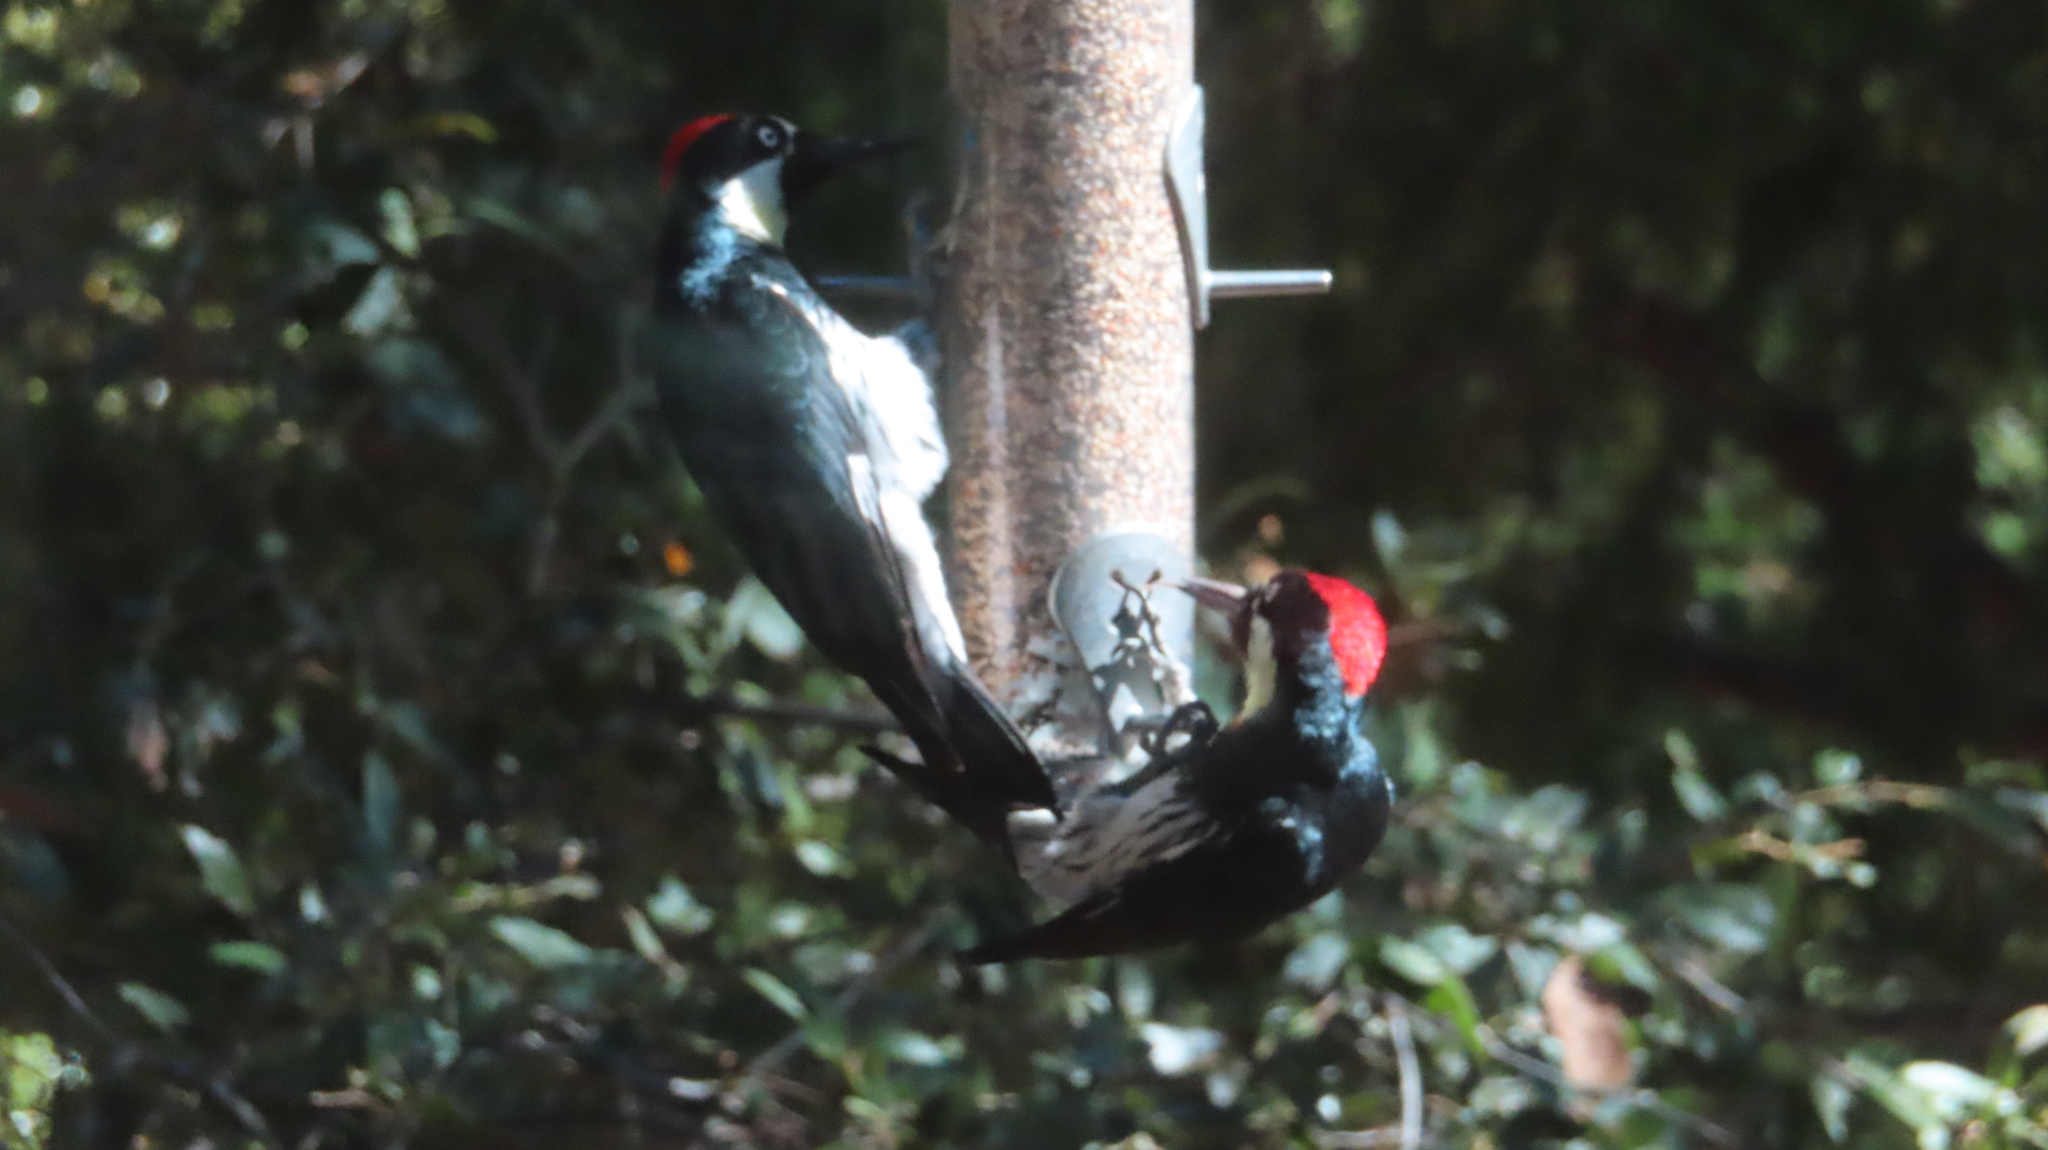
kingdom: Animalia
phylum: Chordata
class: Aves
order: Piciformes
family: Picidae
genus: Melanerpes
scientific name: Melanerpes formicivorus
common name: Acorn woodpecker
